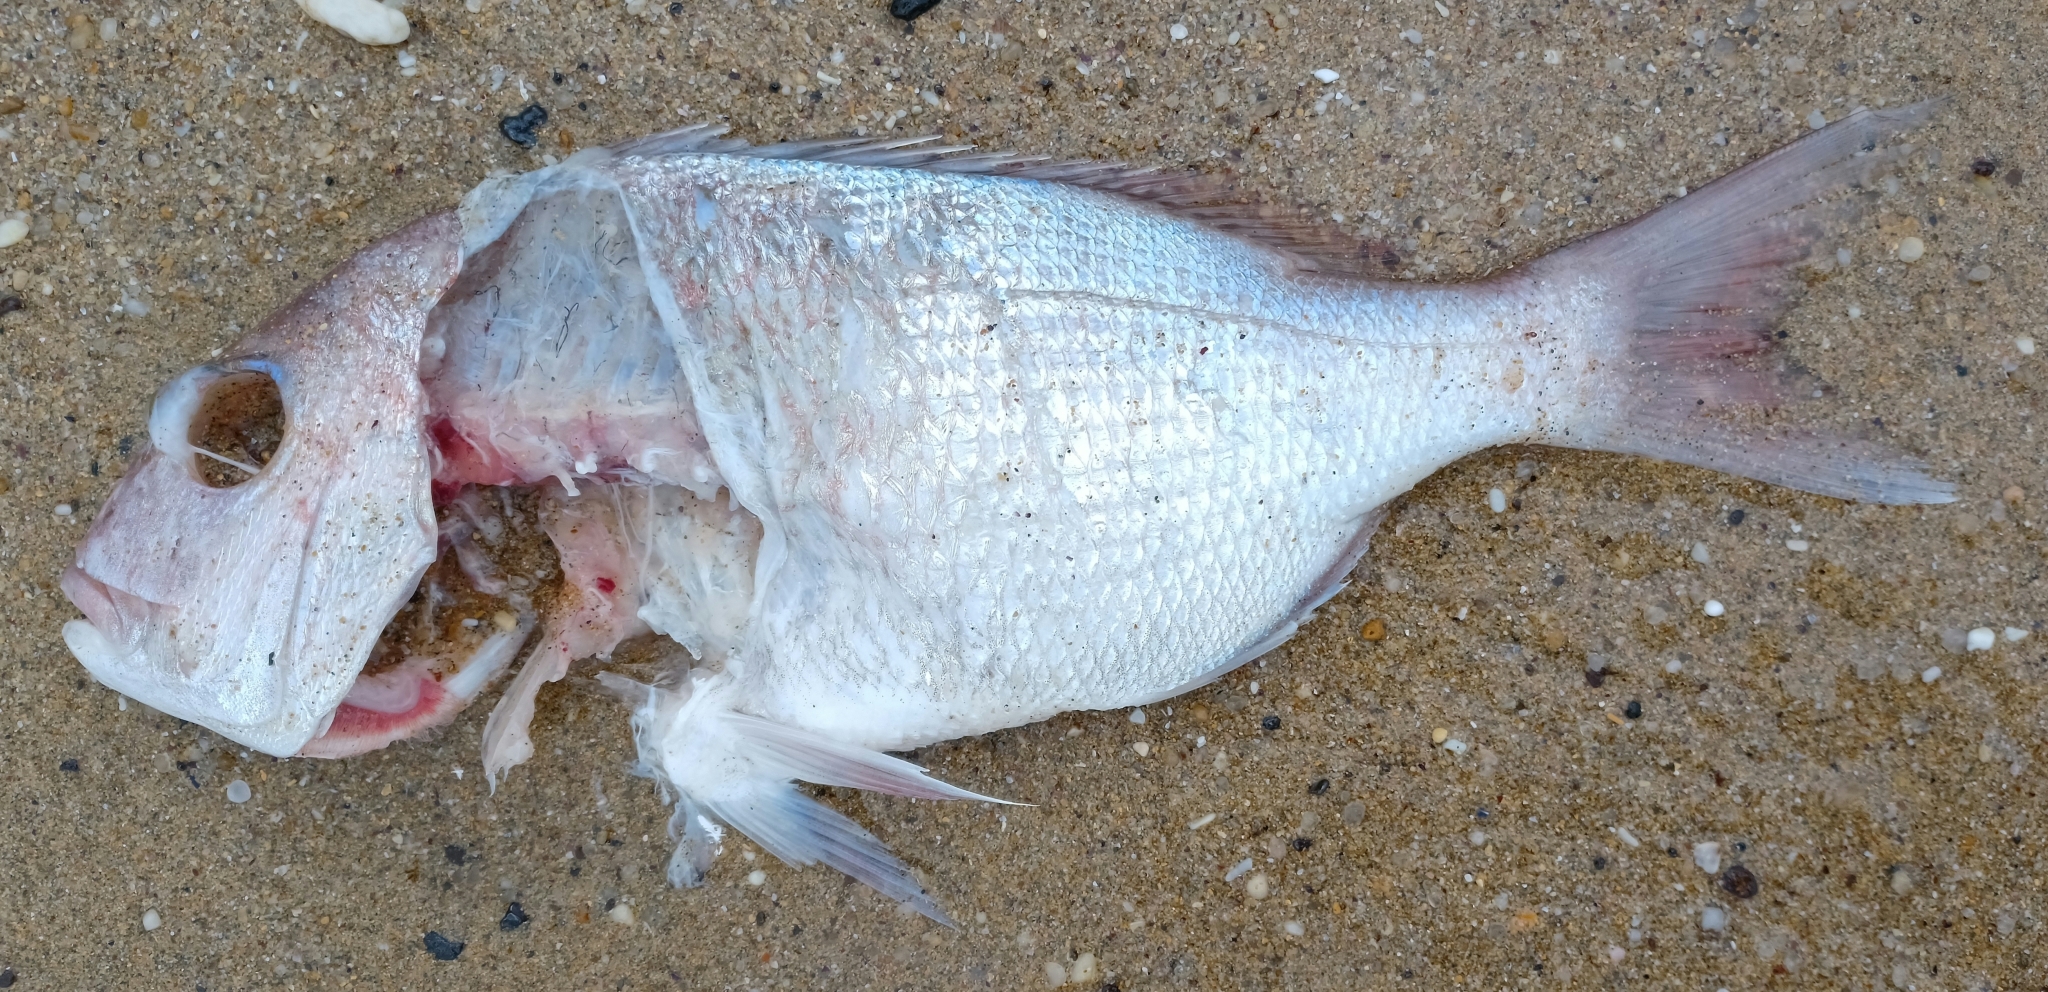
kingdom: Animalia
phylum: Chordata
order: Perciformes
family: Sparidae
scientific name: Sparidae
